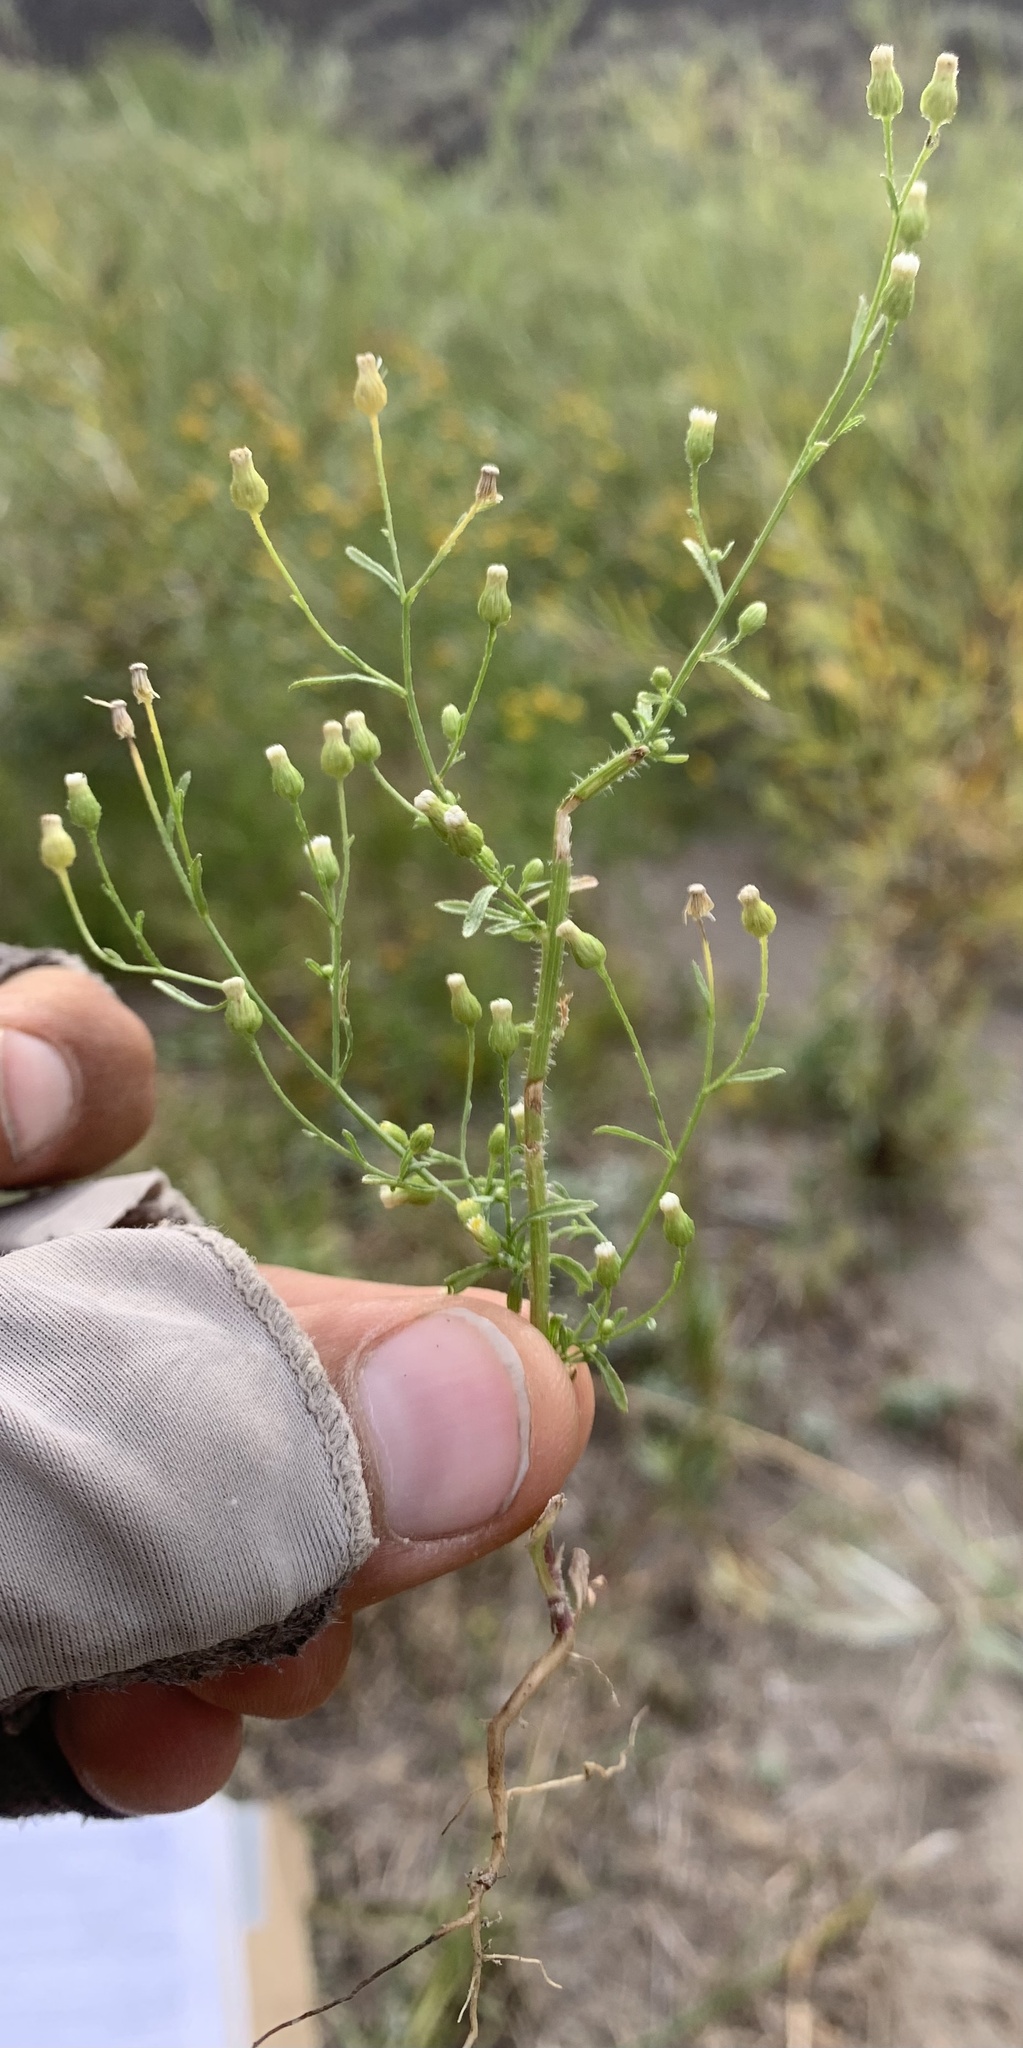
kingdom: Plantae
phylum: Tracheophyta
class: Magnoliopsida
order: Asterales
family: Asteraceae
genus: Erigeron
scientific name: Erigeron canadensis
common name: Canadian fleabane
